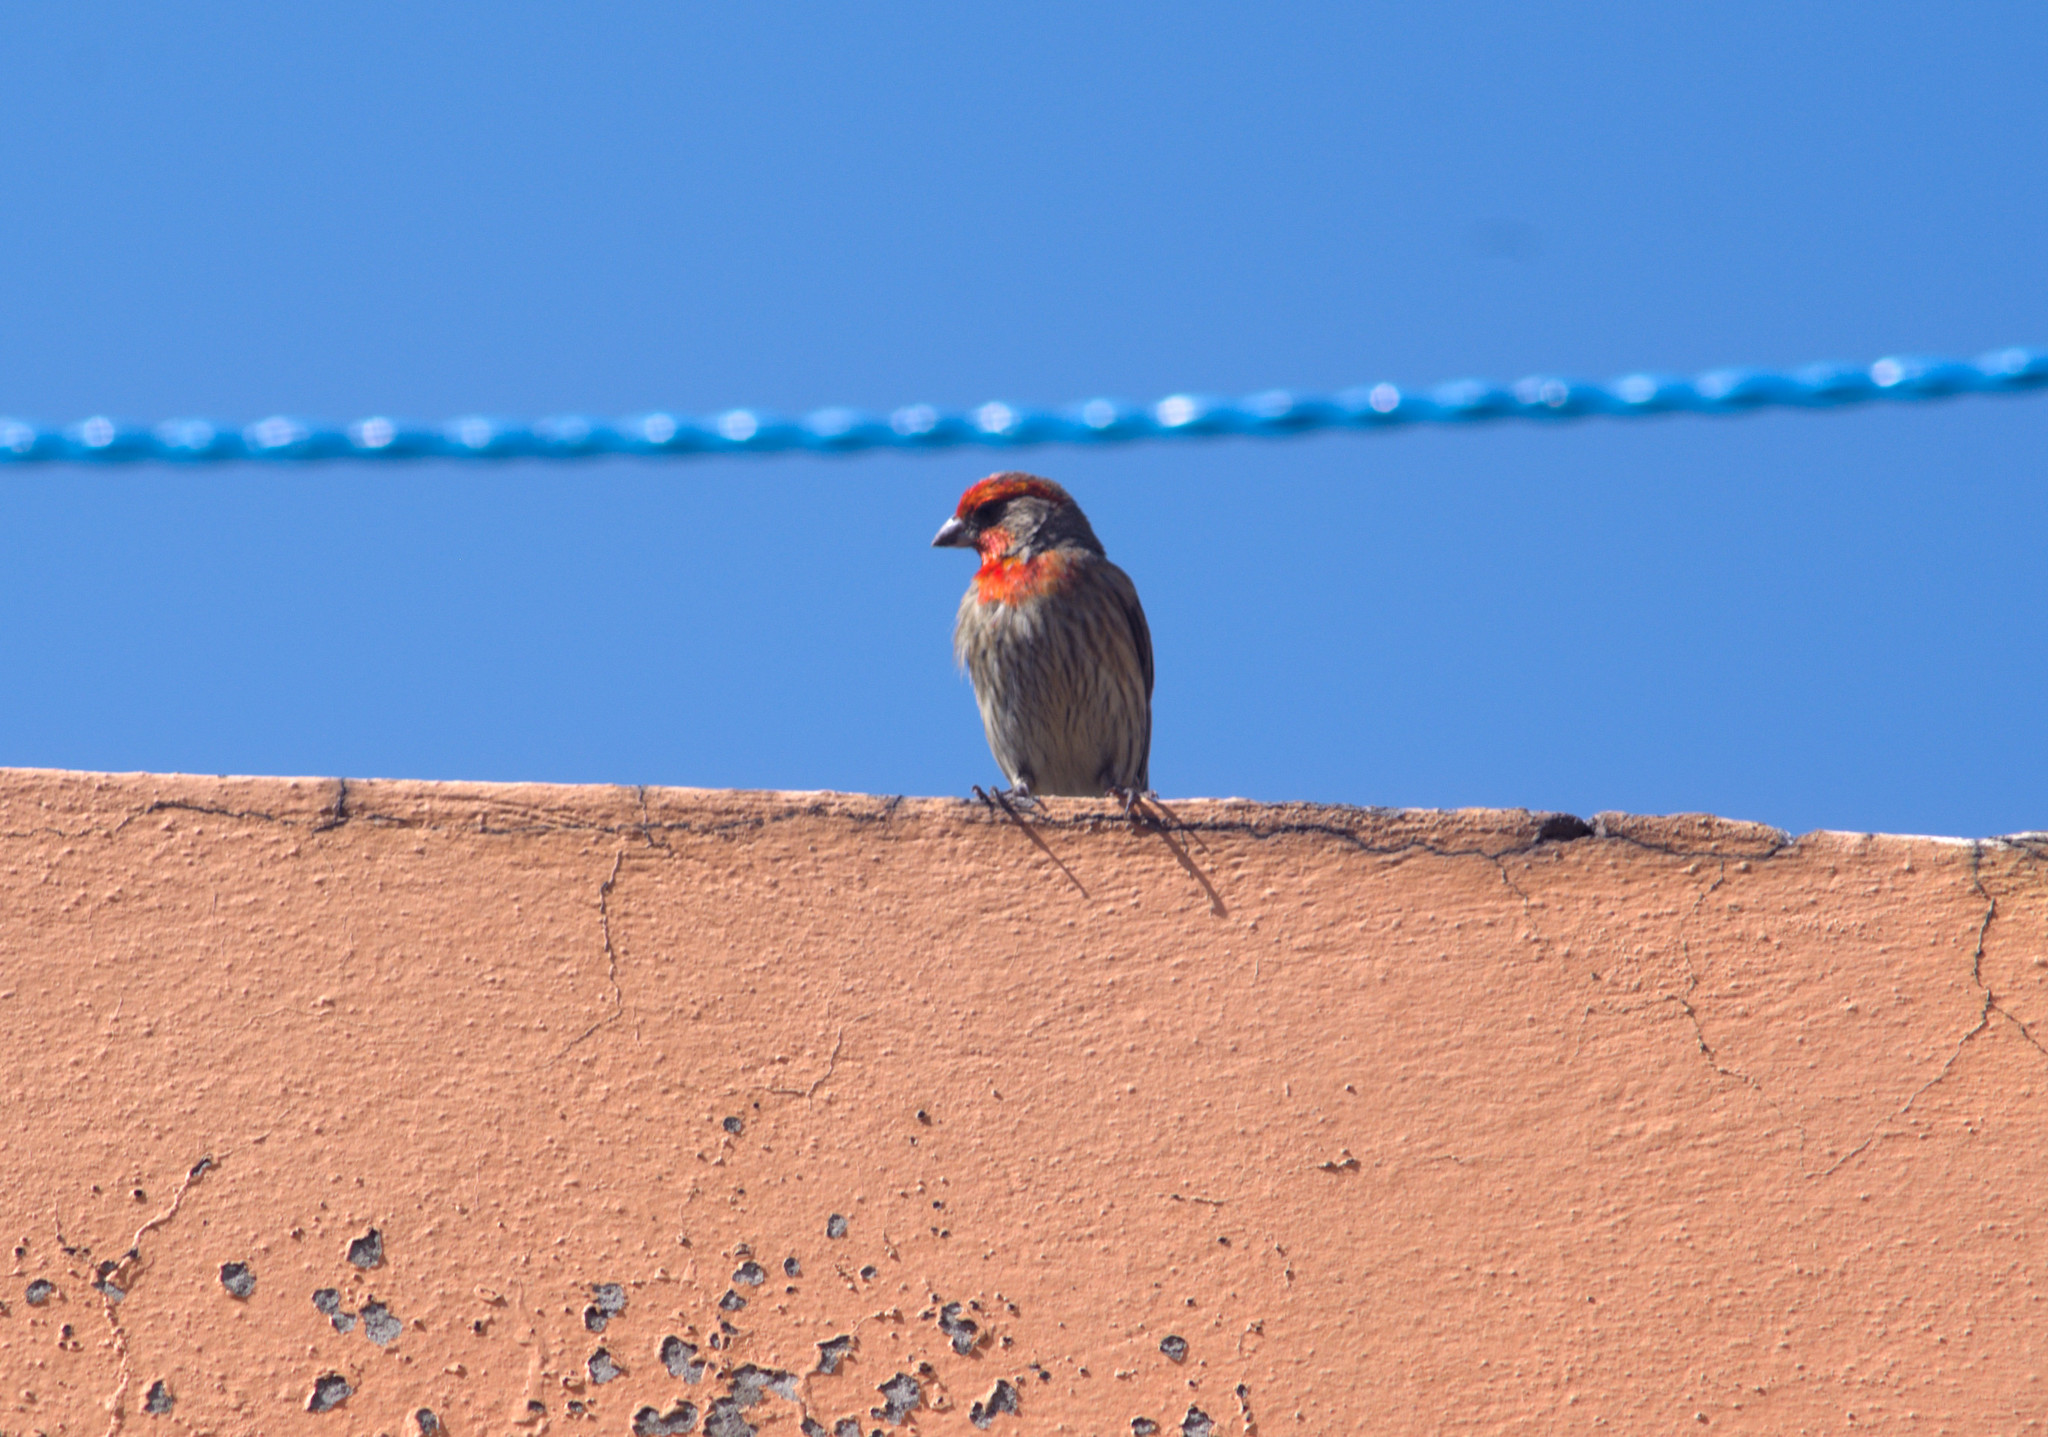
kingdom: Animalia
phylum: Chordata
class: Aves
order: Passeriformes
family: Fringillidae
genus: Haemorhous
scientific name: Haemorhous mexicanus
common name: House finch
